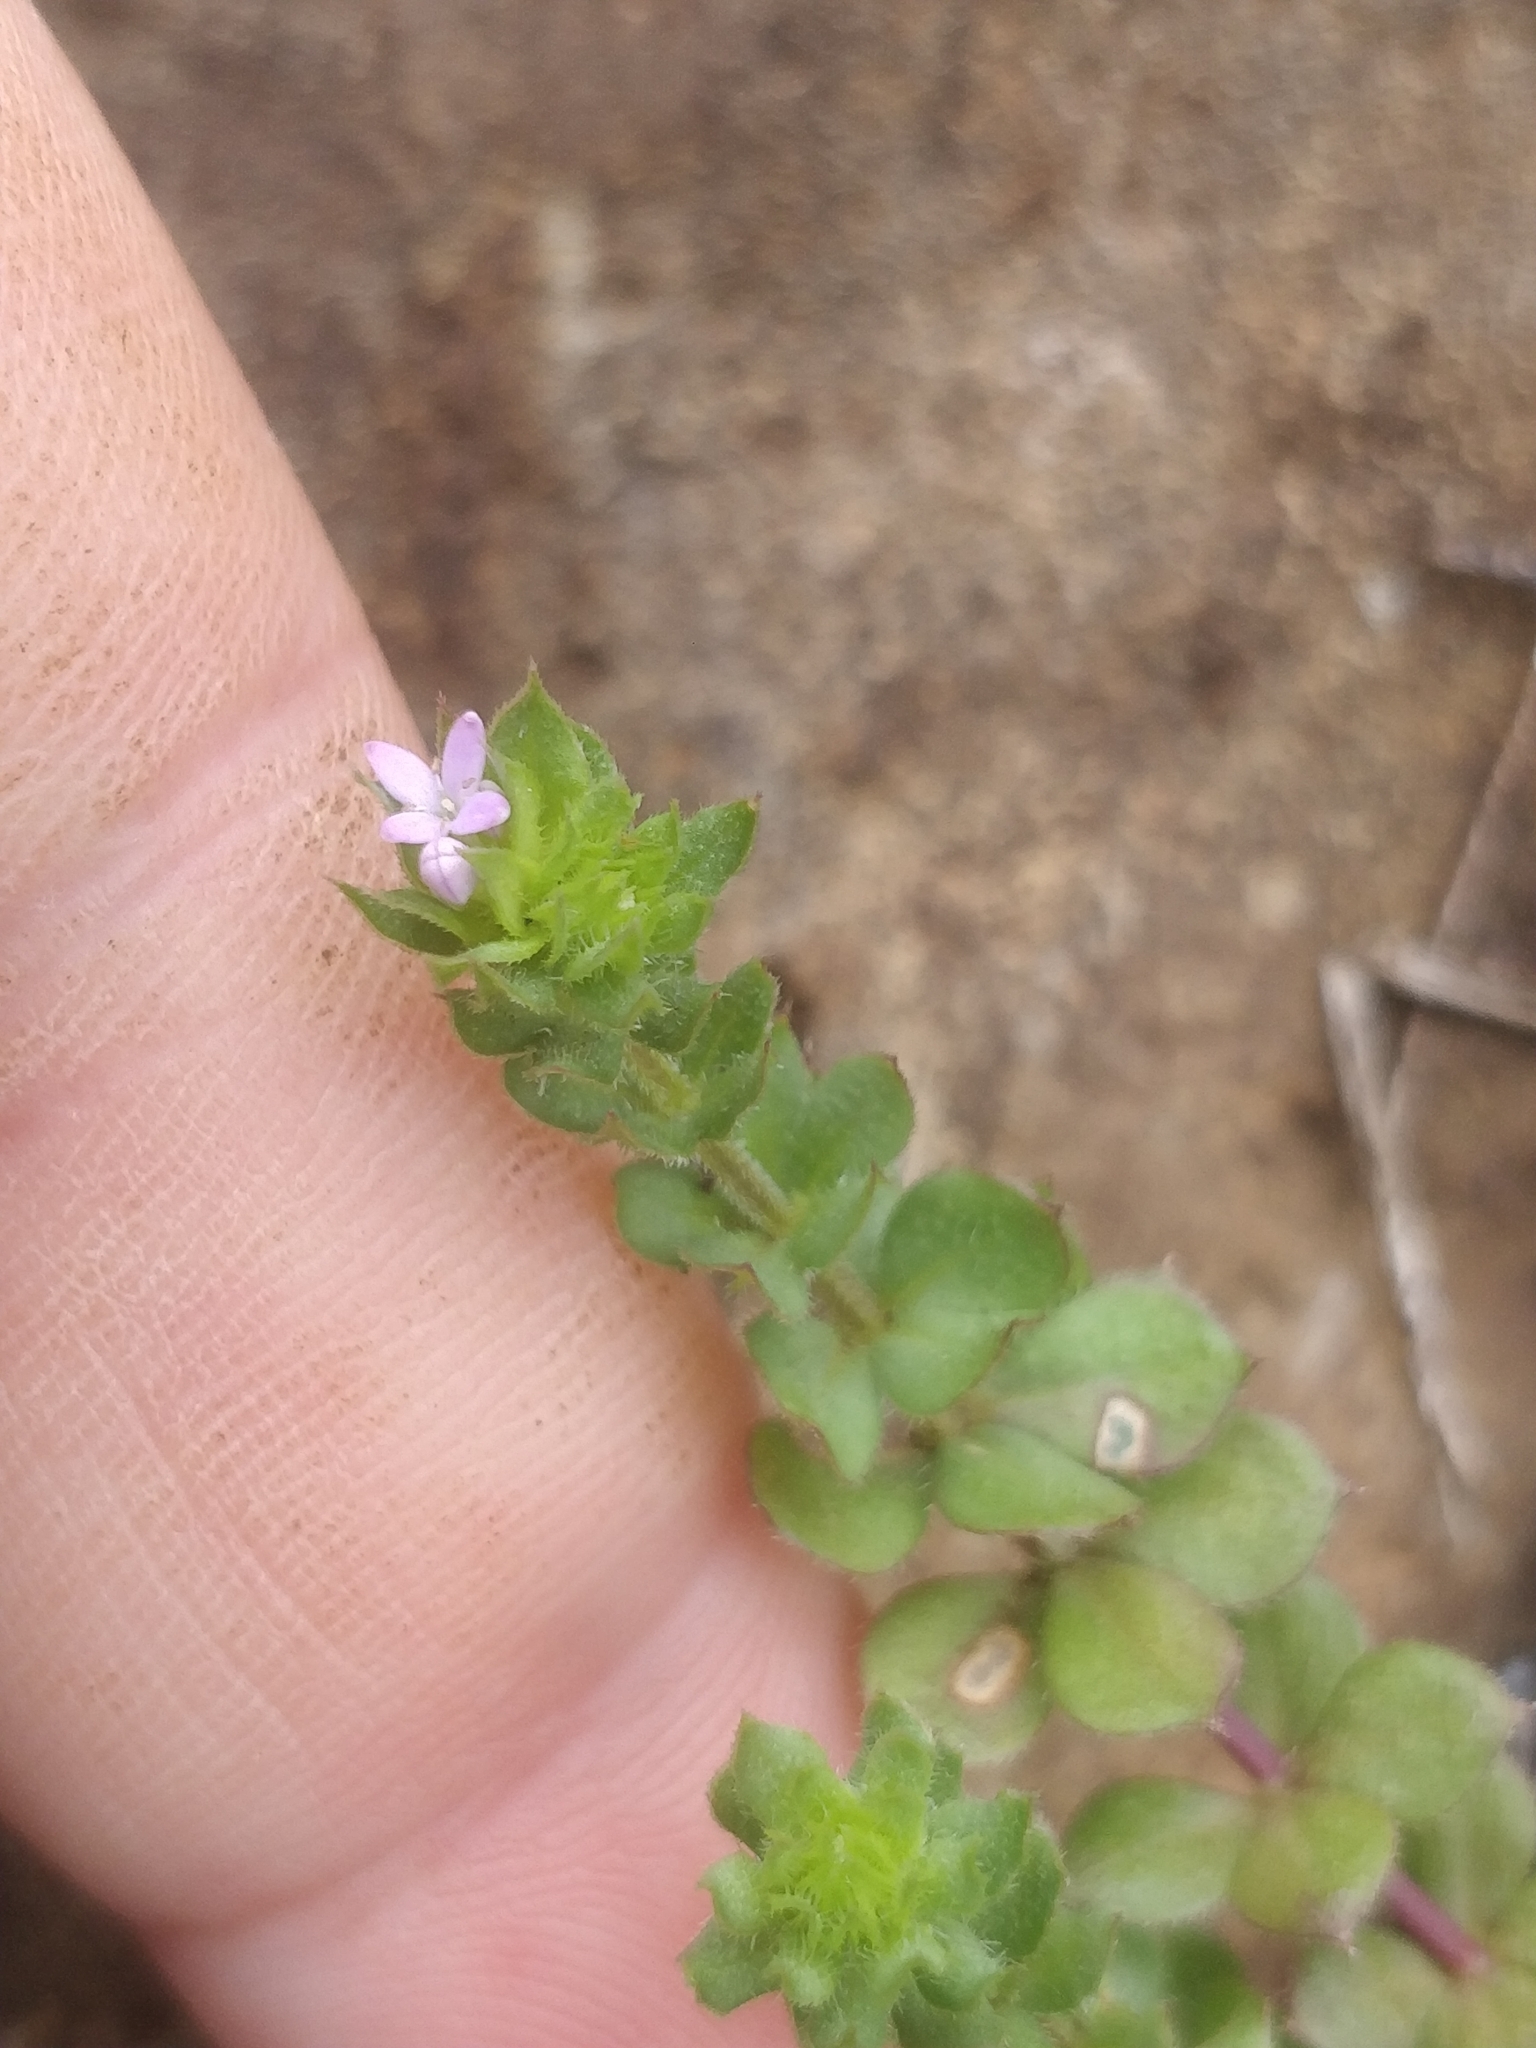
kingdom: Plantae
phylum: Tracheophyta
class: Magnoliopsida
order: Gentianales
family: Rubiaceae
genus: Sherardia
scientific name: Sherardia arvensis
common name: Field madder
